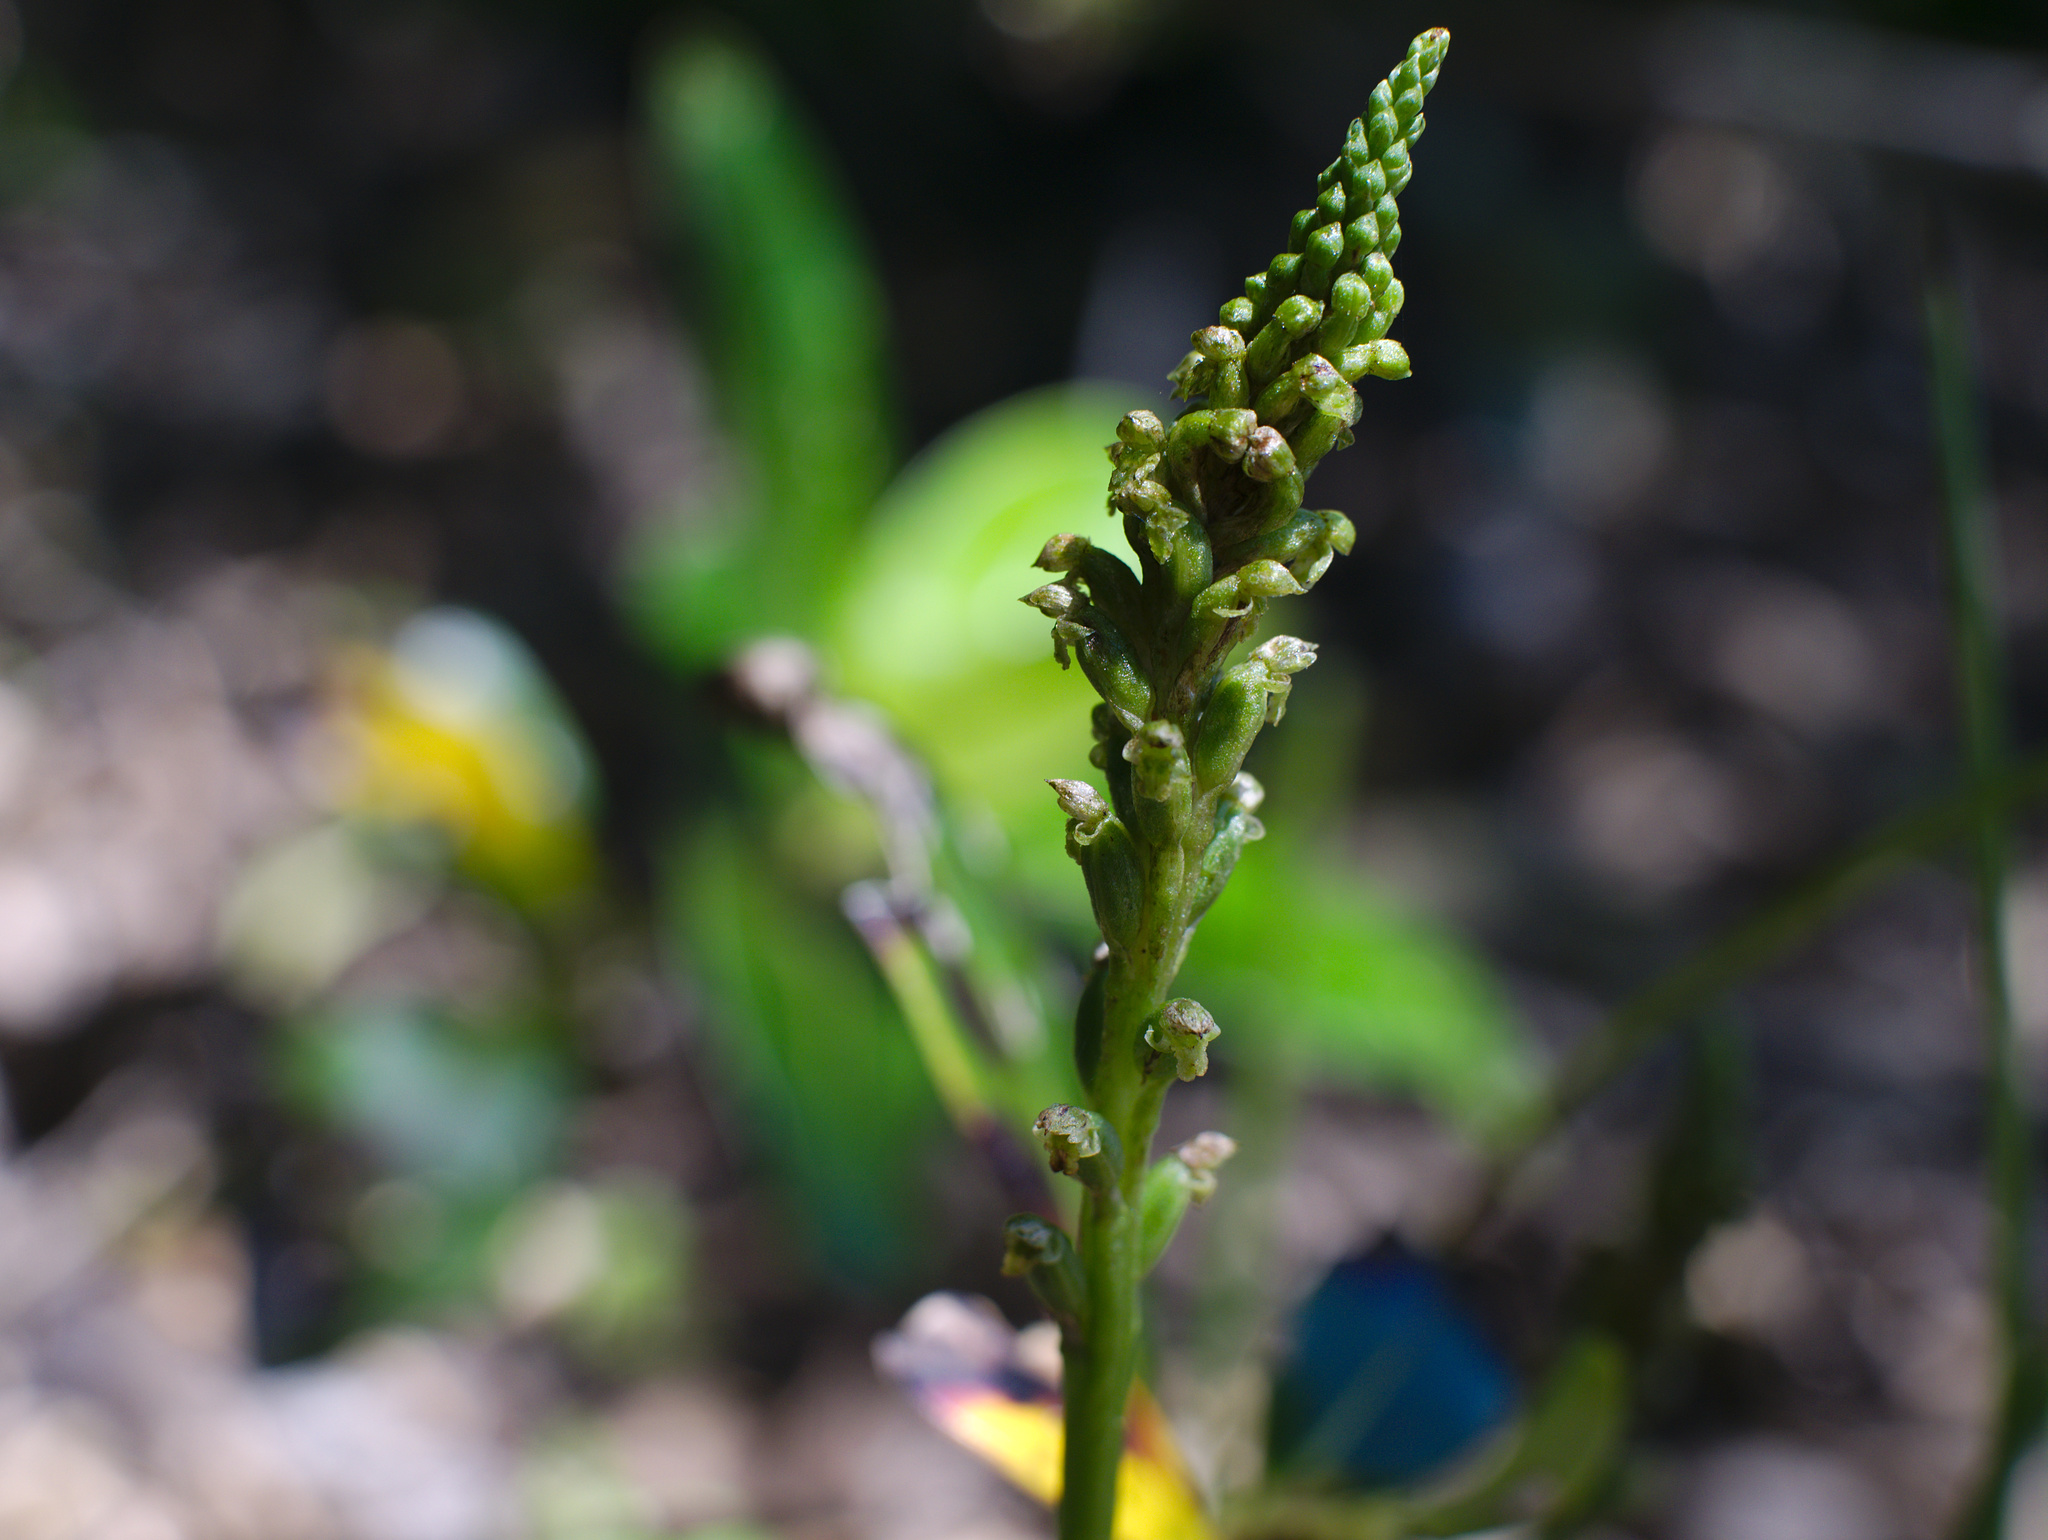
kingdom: Plantae
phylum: Tracheophyta
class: Liliopsida
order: Asparagales
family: Orchidaceae
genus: Microtis
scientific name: Microtis unifolia
